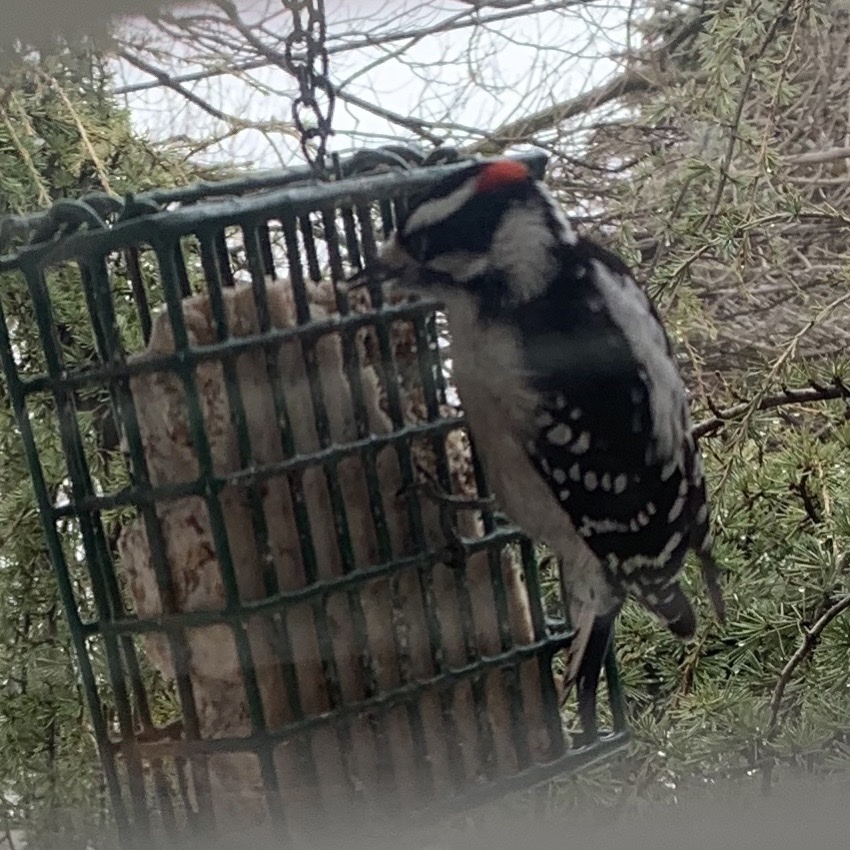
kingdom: Animalia
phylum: Chordata
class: Aves
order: Piciformes
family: Picidae
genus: Dryobates
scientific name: Dryobates pubescens
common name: Downy woodpecker
